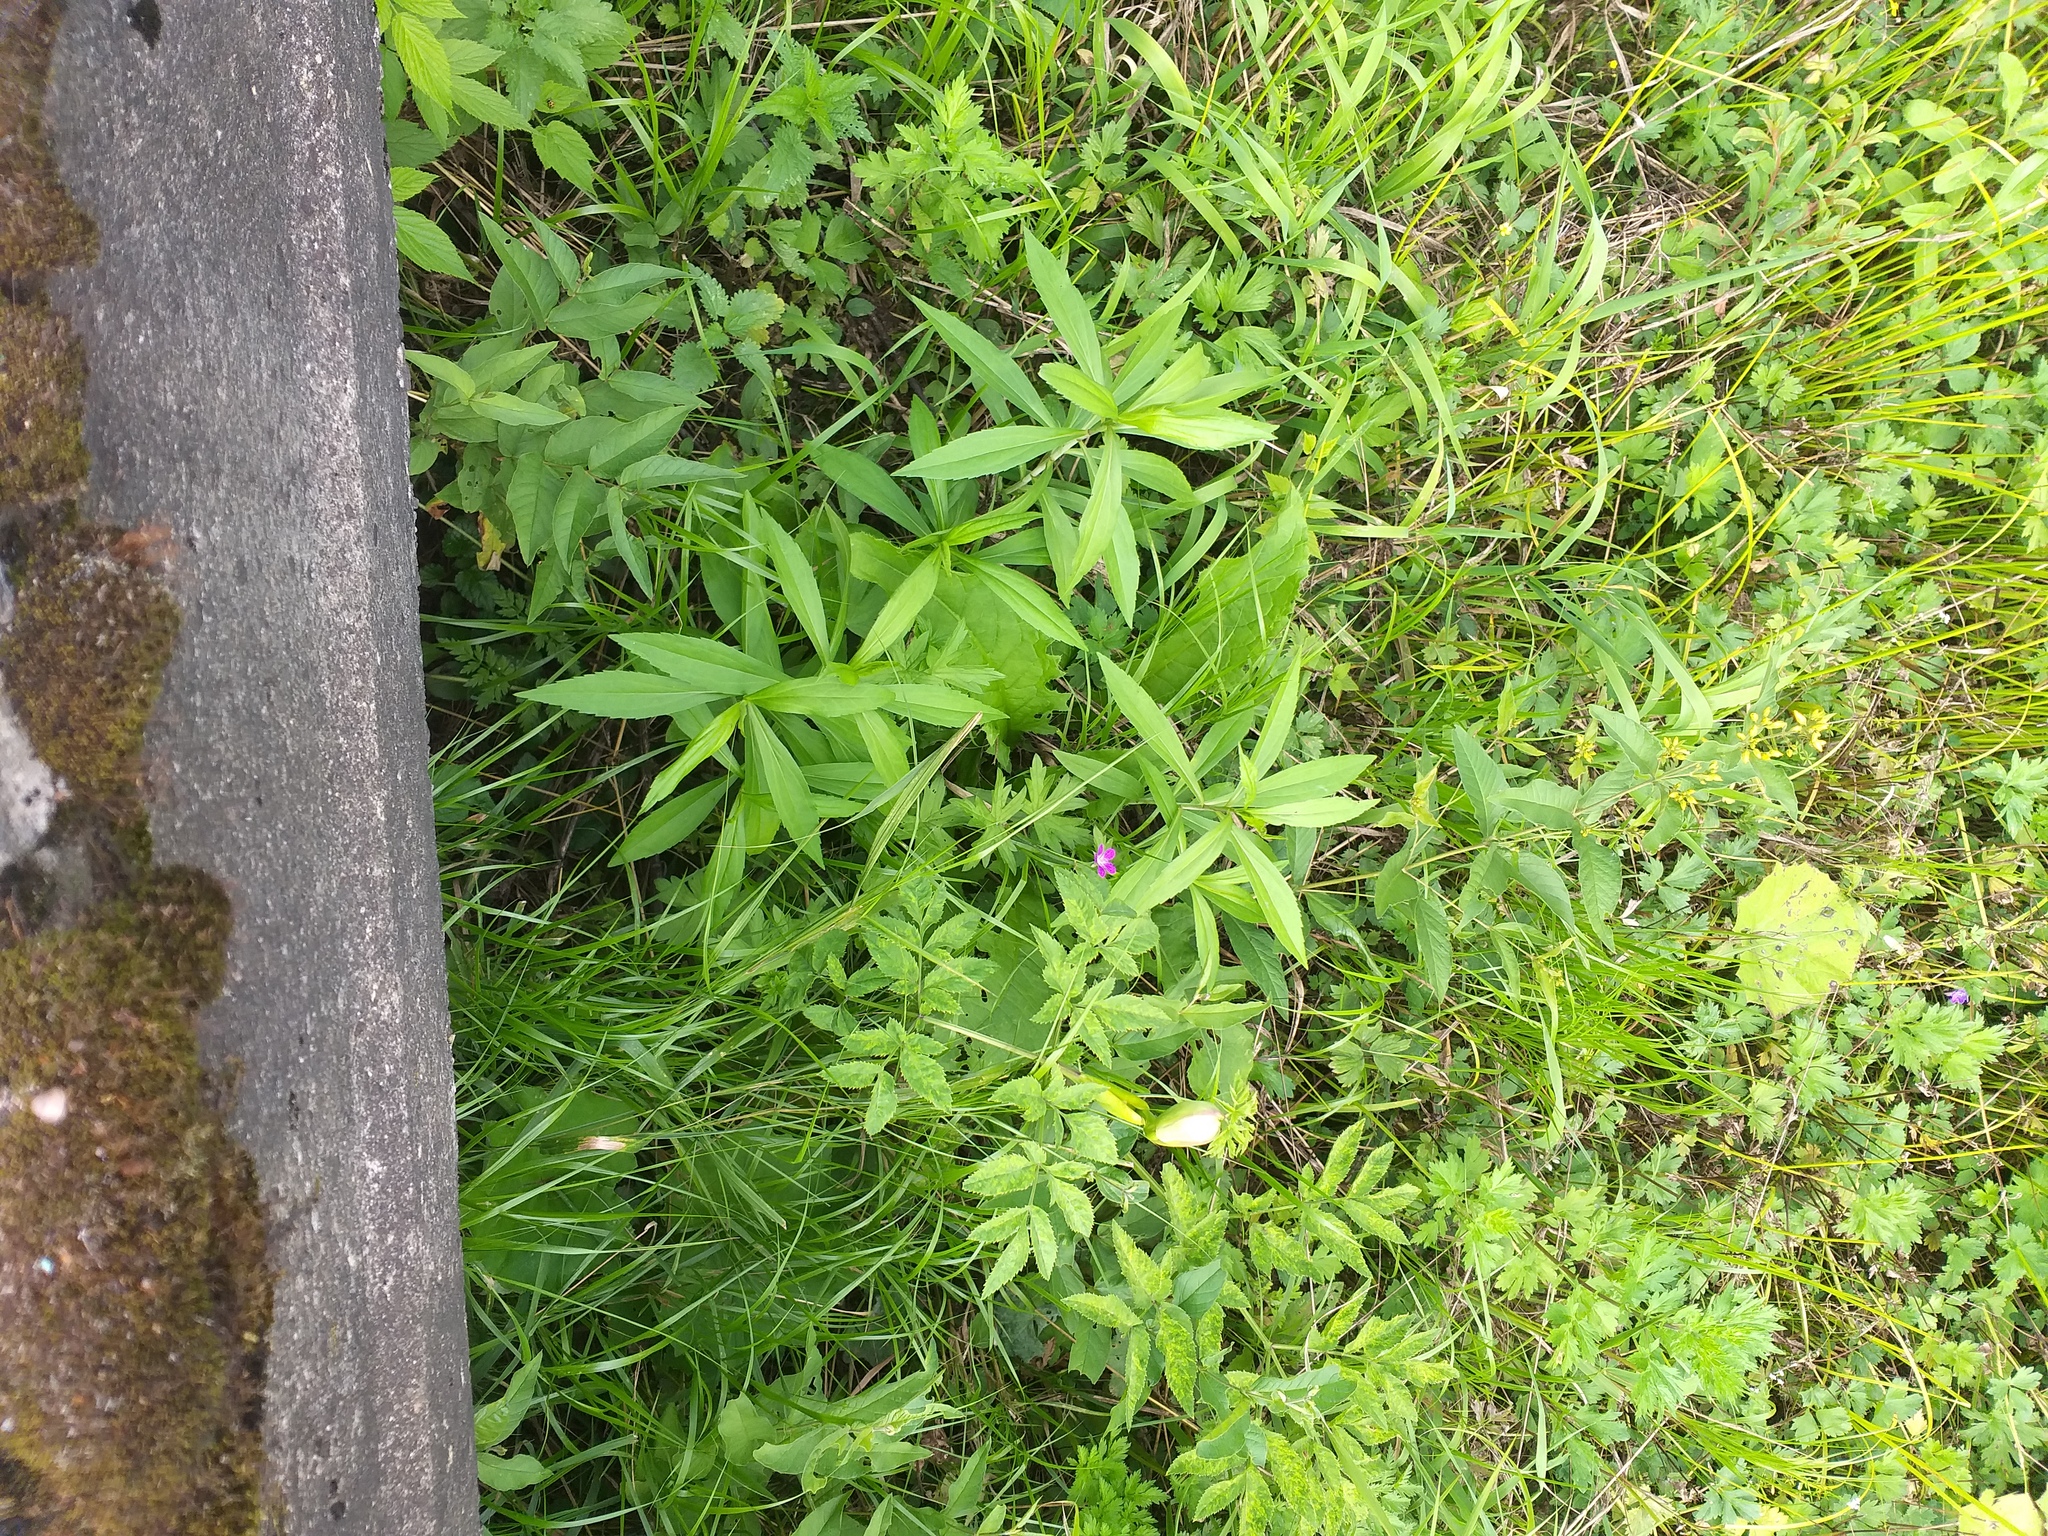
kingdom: Plantae
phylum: Tracheophyta
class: Magnoliopsida
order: Asterales
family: Asteraceae
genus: Solidago
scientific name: Solidago gigantea
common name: Giant goldenrod
